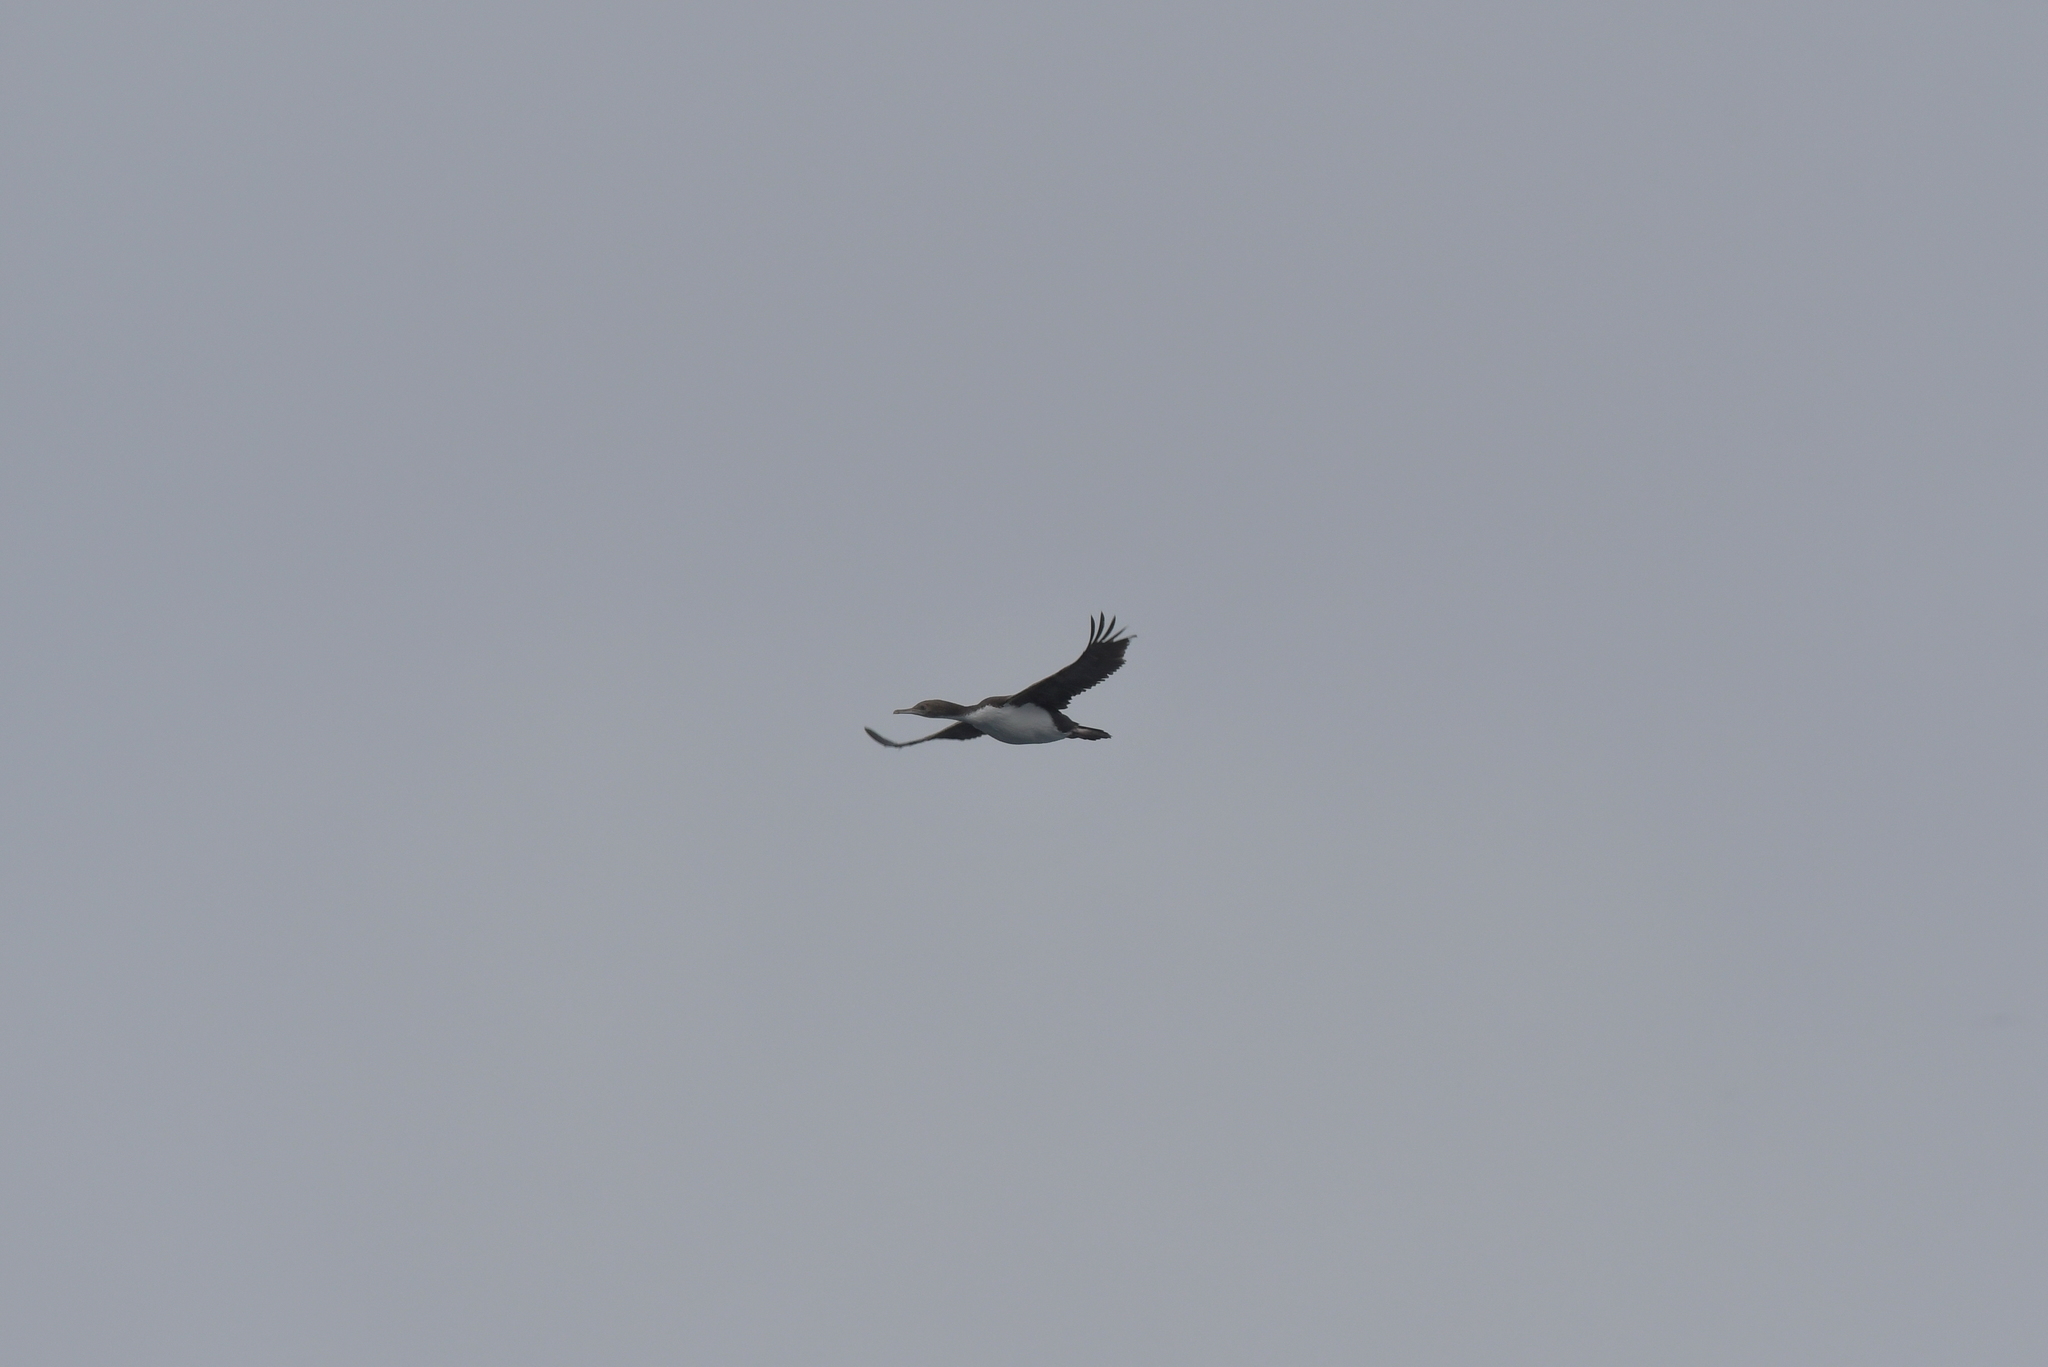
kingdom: Animalia
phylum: Chordata
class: Aves
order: Suliformes
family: Phalacrocoracidae
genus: Leucocarbo
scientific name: Leucocarbo ranfurlyi
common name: Bounty shag
